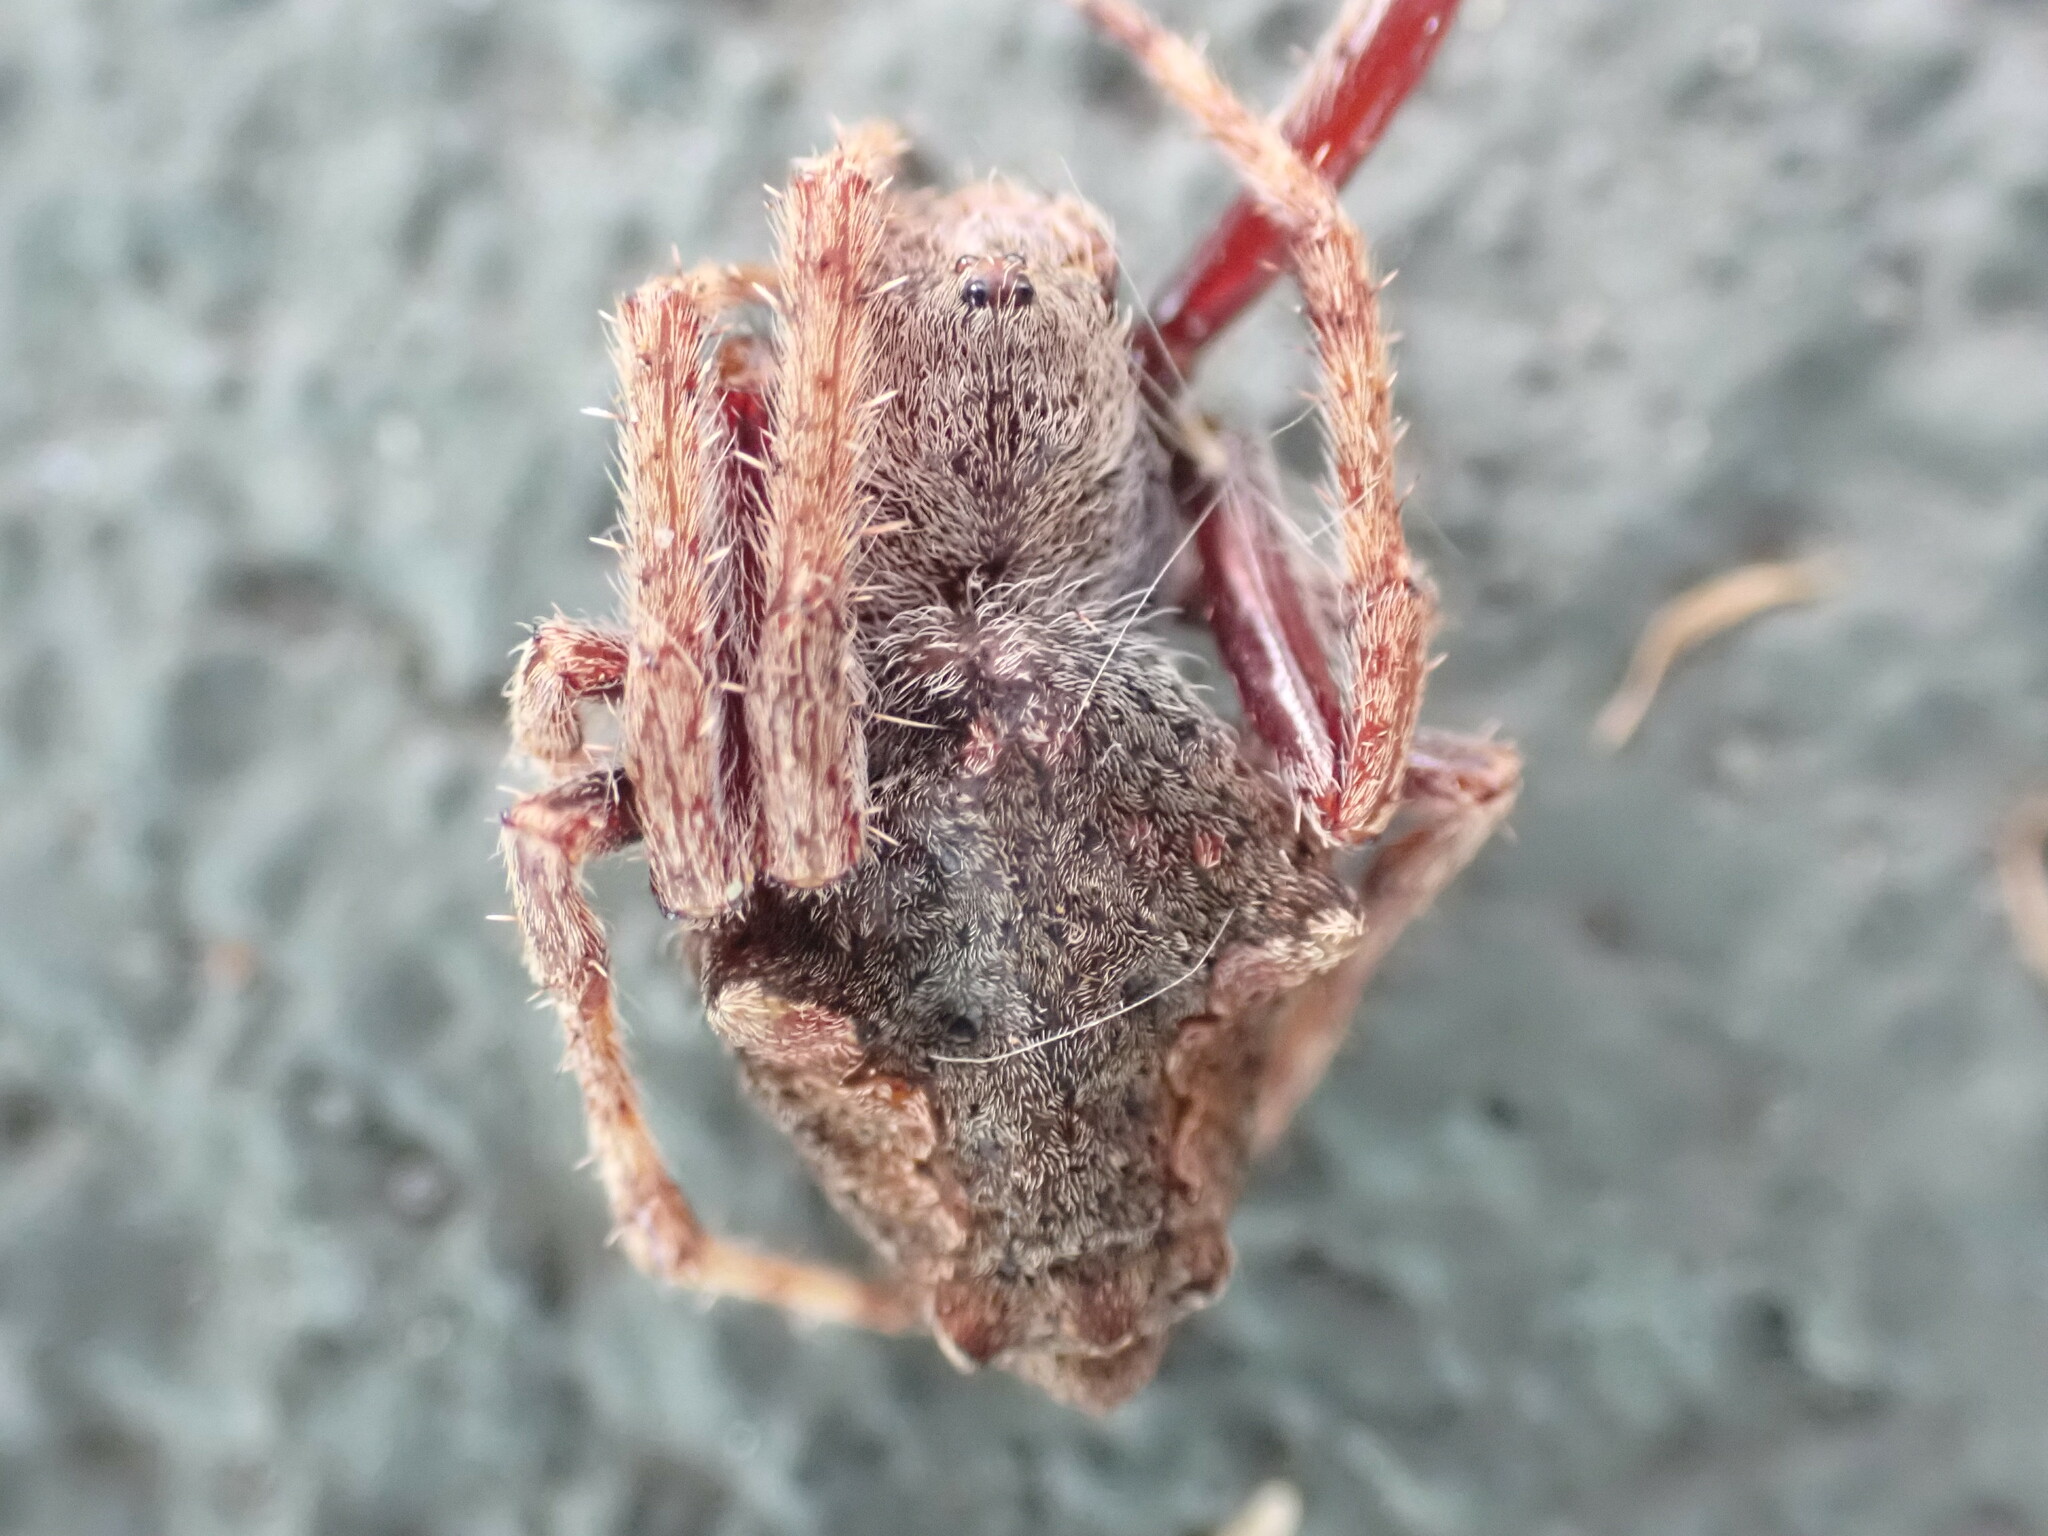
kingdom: Animalia
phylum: Arthropoda
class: Arachnida
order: Araneae
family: Araneidae
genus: Eriophora
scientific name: Eriophora pustulosa
